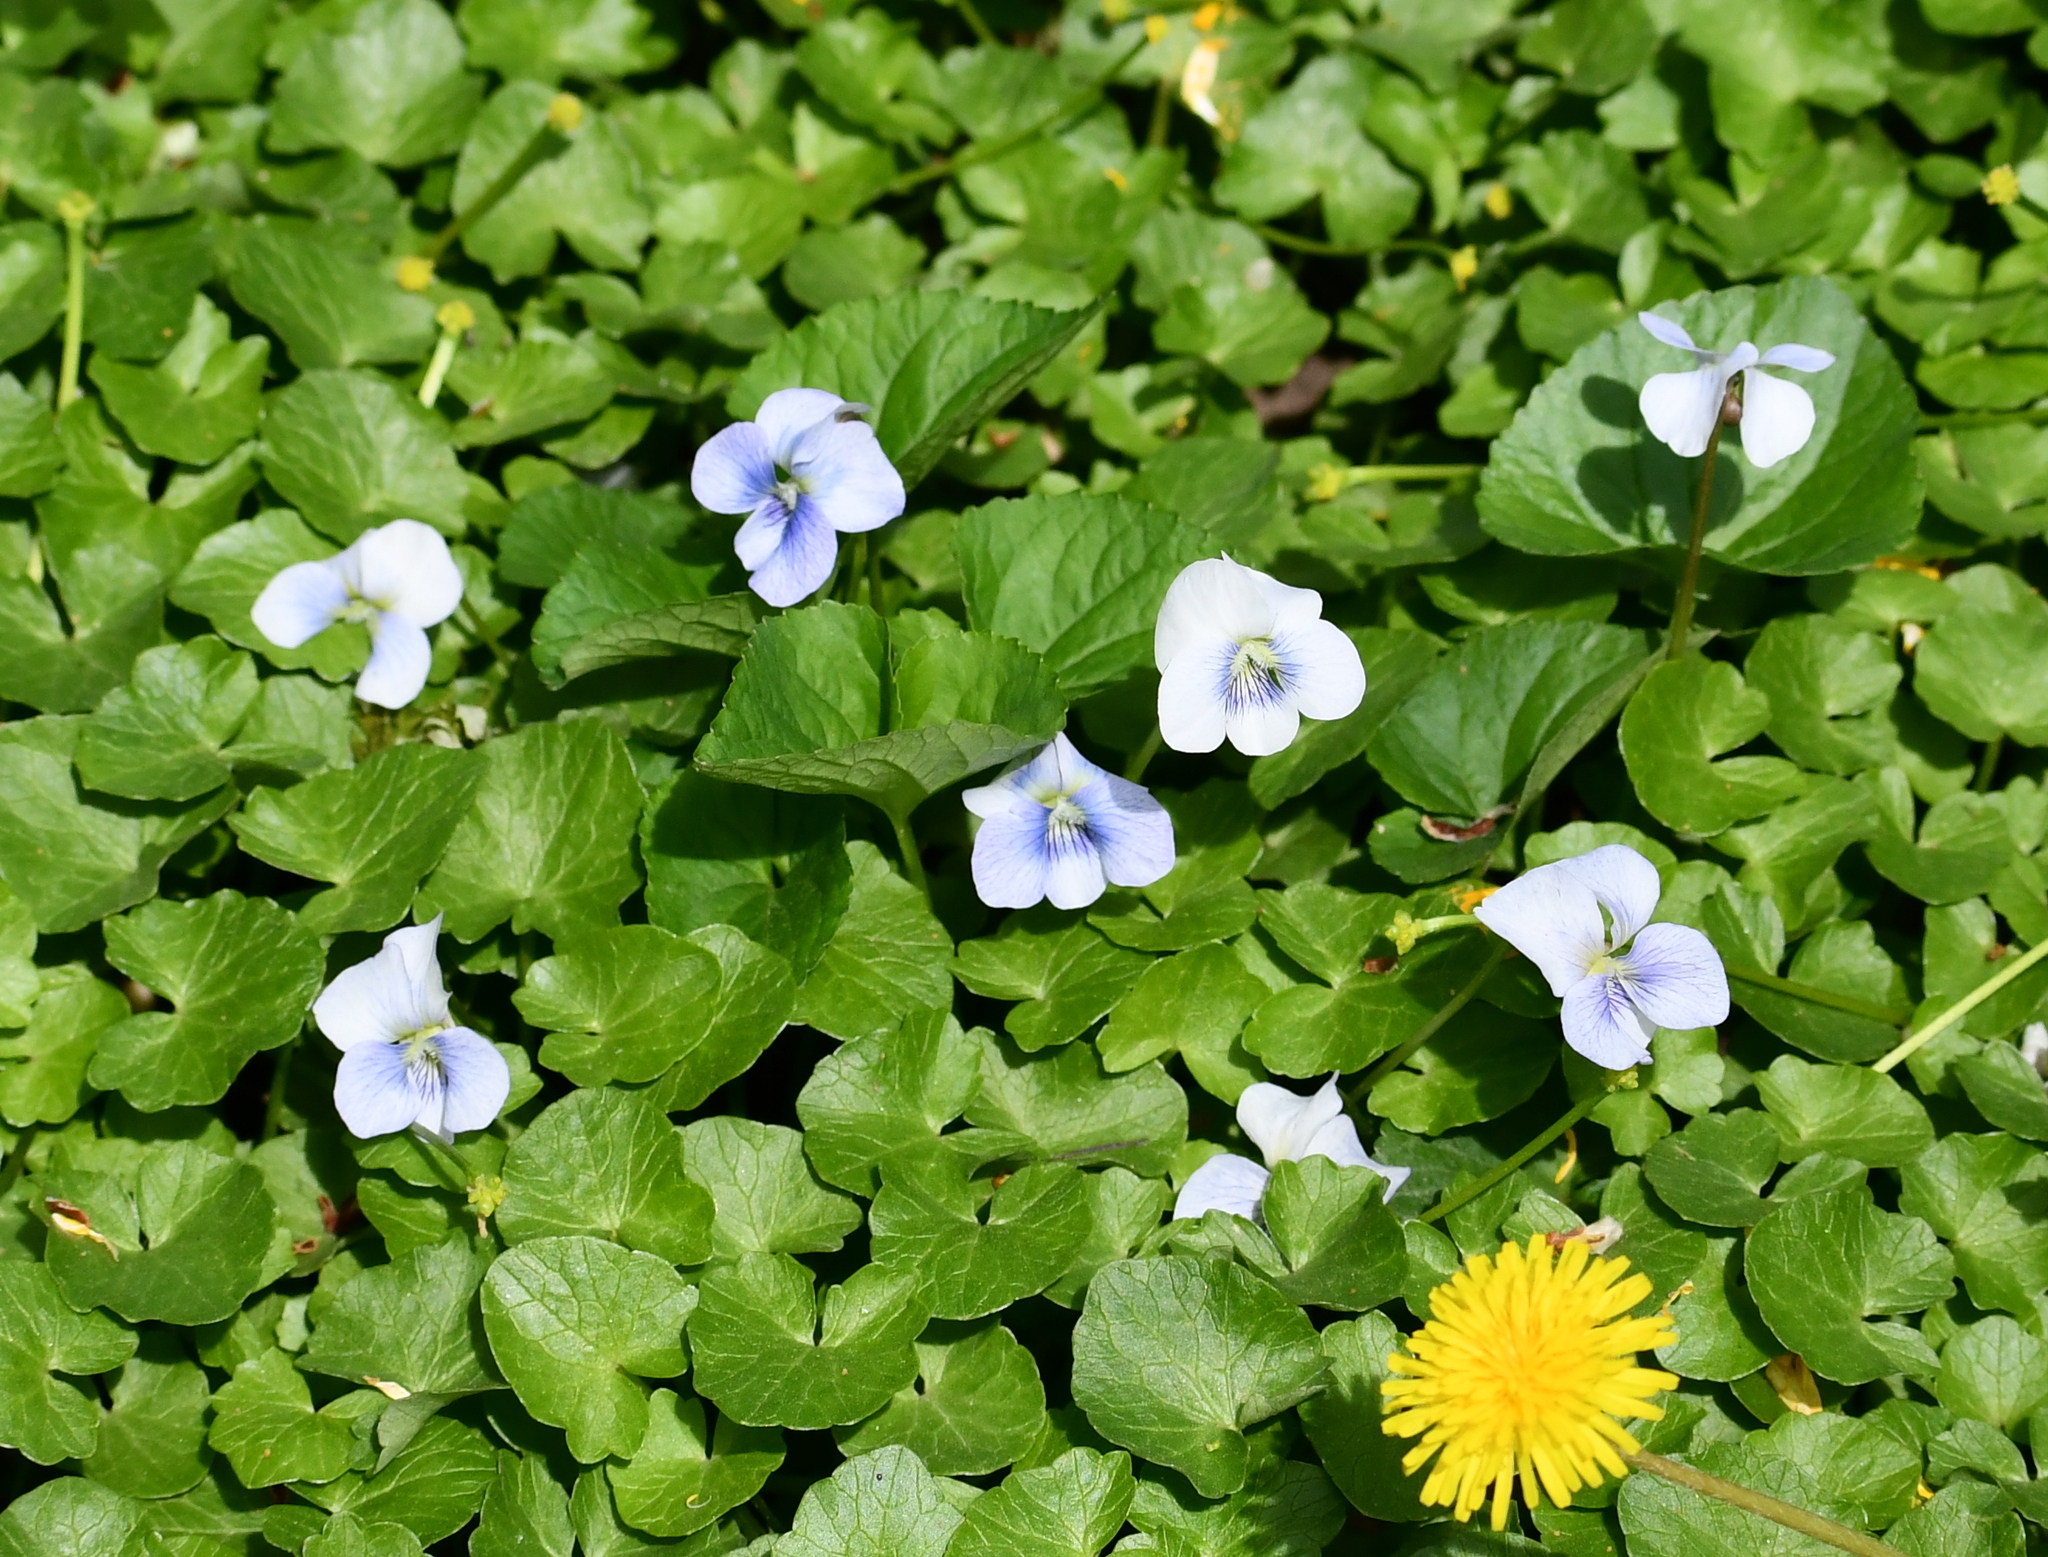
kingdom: Plantae
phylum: Tracheophyta
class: Magnoliopsida
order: Malpighiales
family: Violaceae
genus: Viola
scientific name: Viola sororia
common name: Dooryard violet
